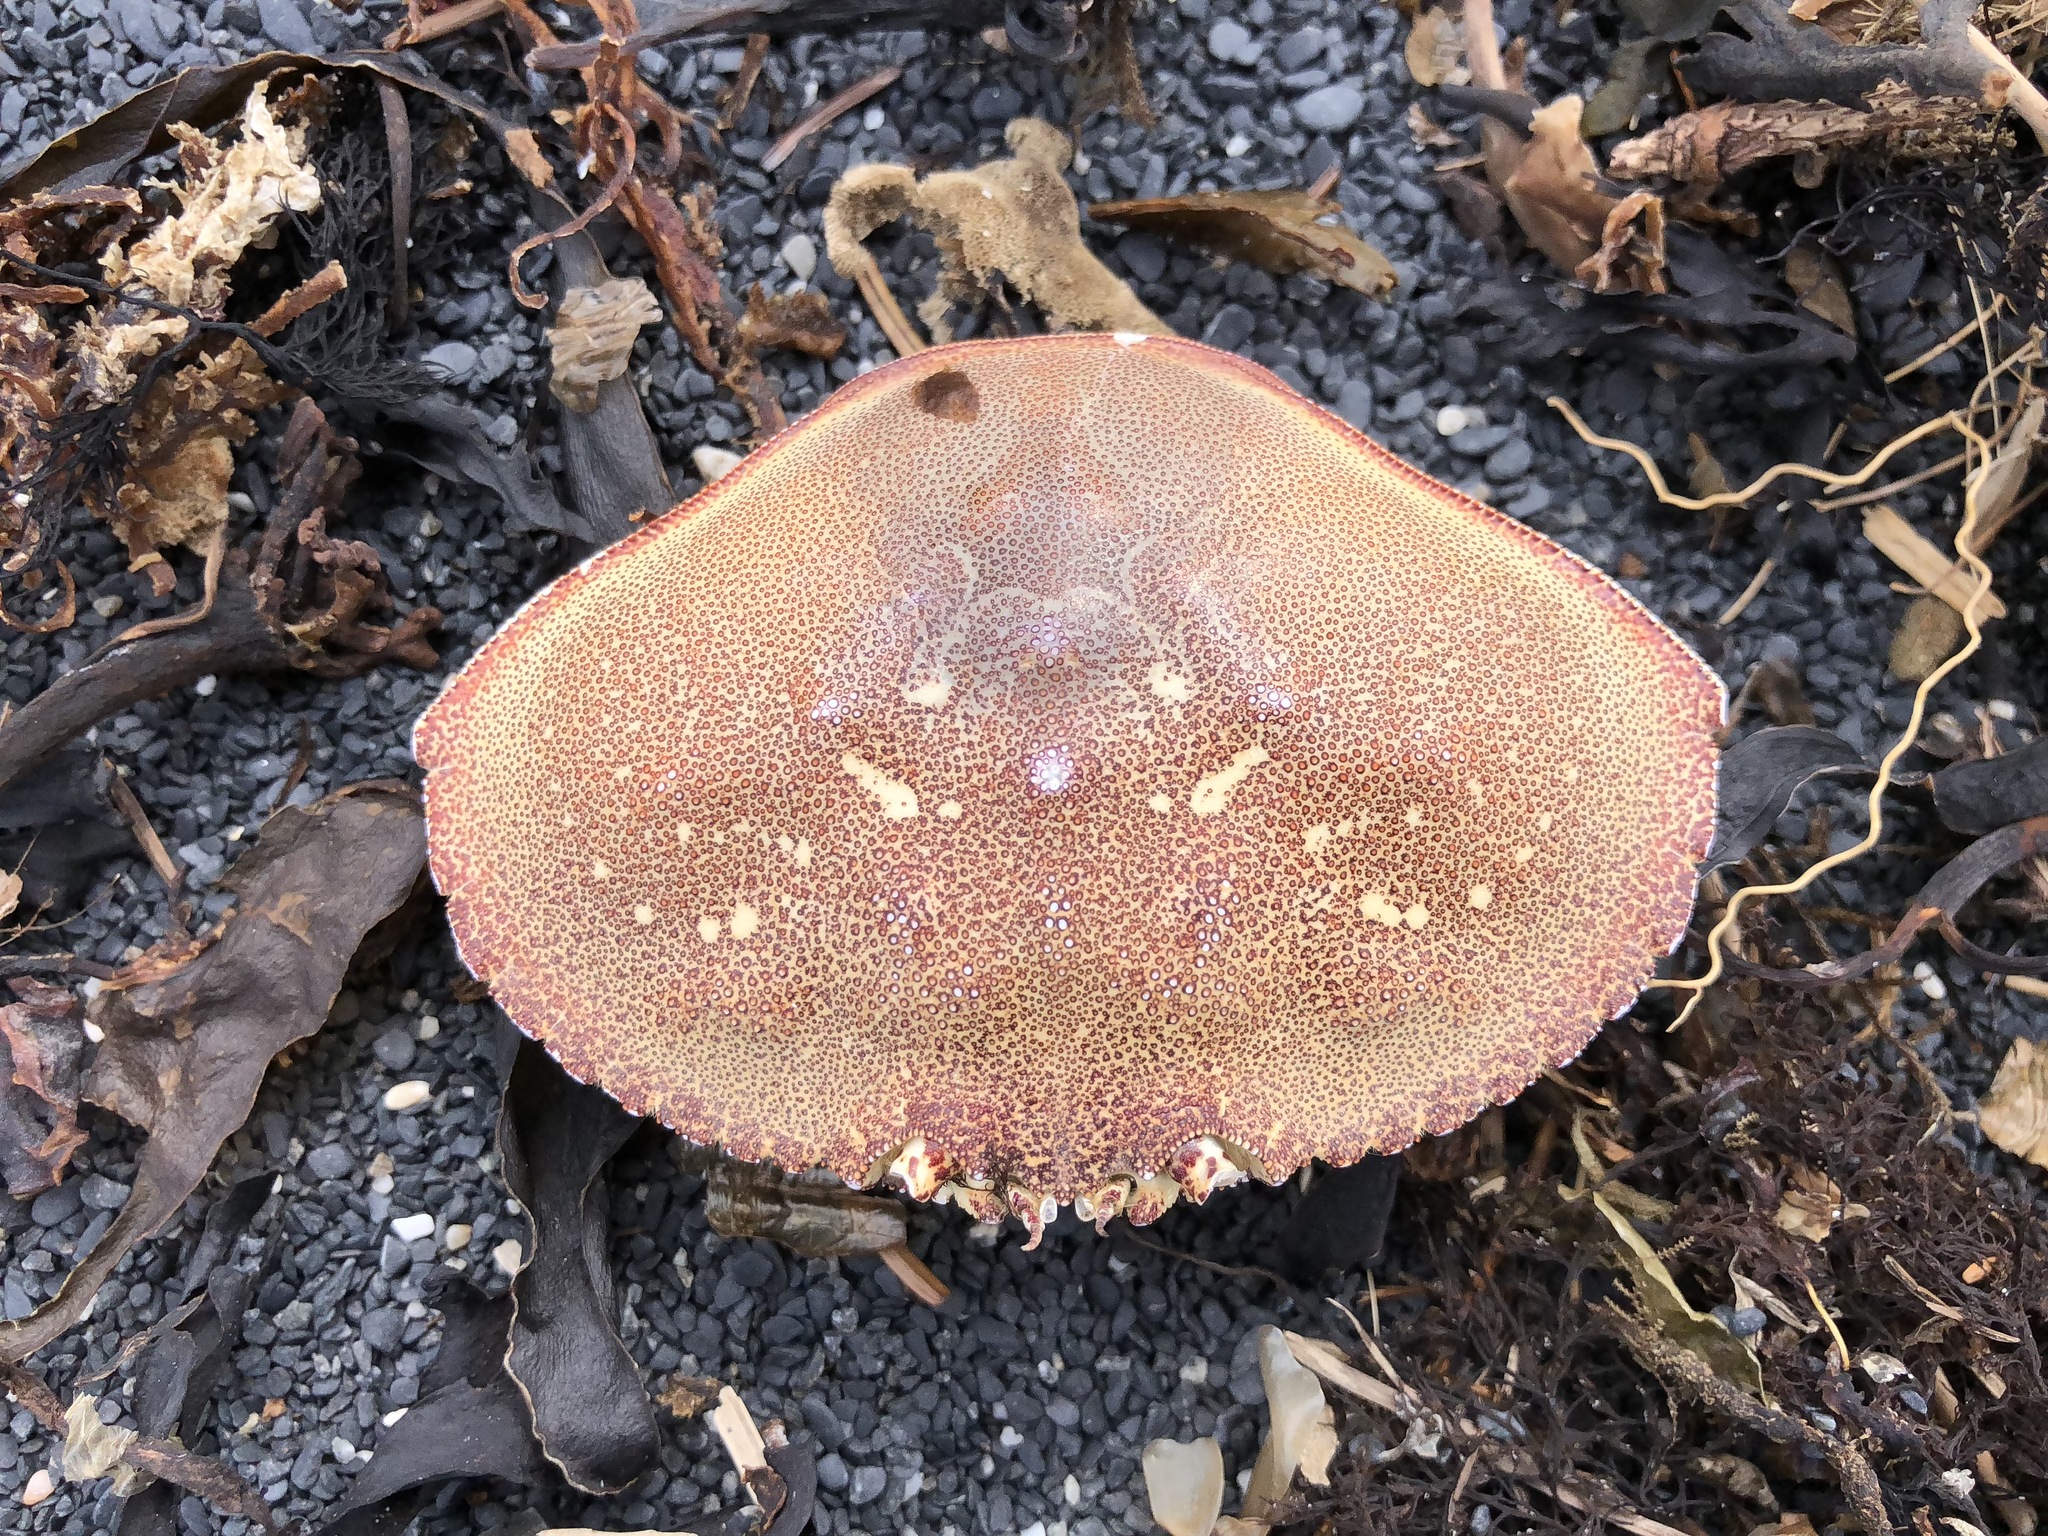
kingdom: Animalia
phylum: Arthropoda
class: Malacostraca
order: Decapoda
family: Cancridae
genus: Metacarcinus
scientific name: Metacarcinus magister
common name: Californian crab
